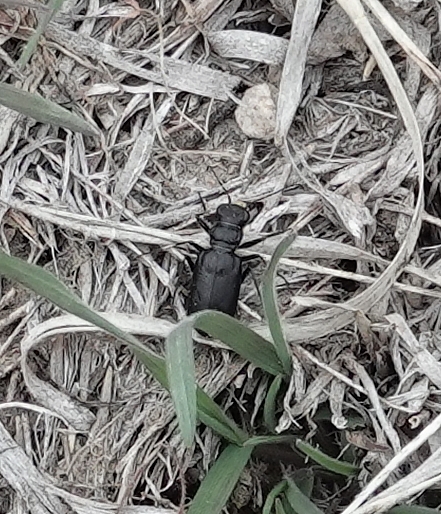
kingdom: Animalia
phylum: Arthropoda
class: Insecta
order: Coleoptera
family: Carabidae
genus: Cicindela
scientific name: Cicindela nebraskana
